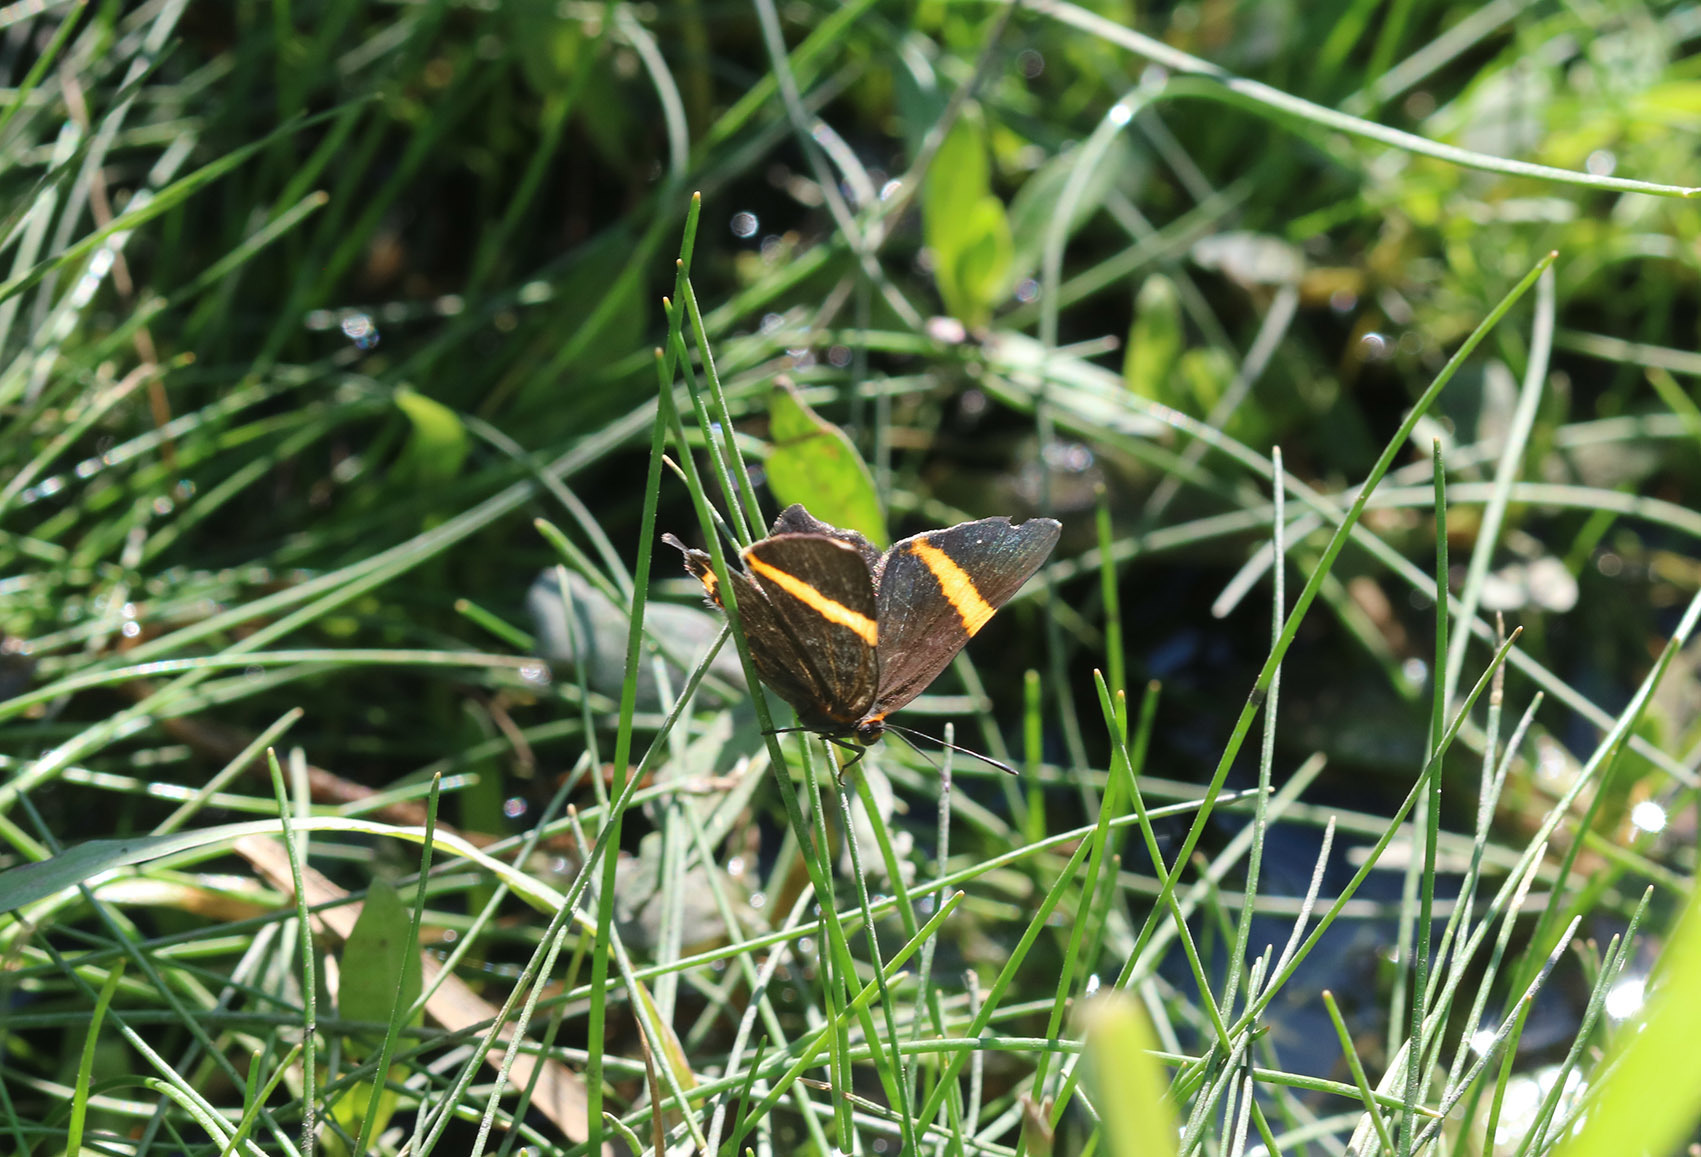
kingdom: Animalia
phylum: Arthropoda
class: Insecta
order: Lepidoptera
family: Riodinidae
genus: Riodina
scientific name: Riodina lysippoides
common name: Little dancer metalmark
